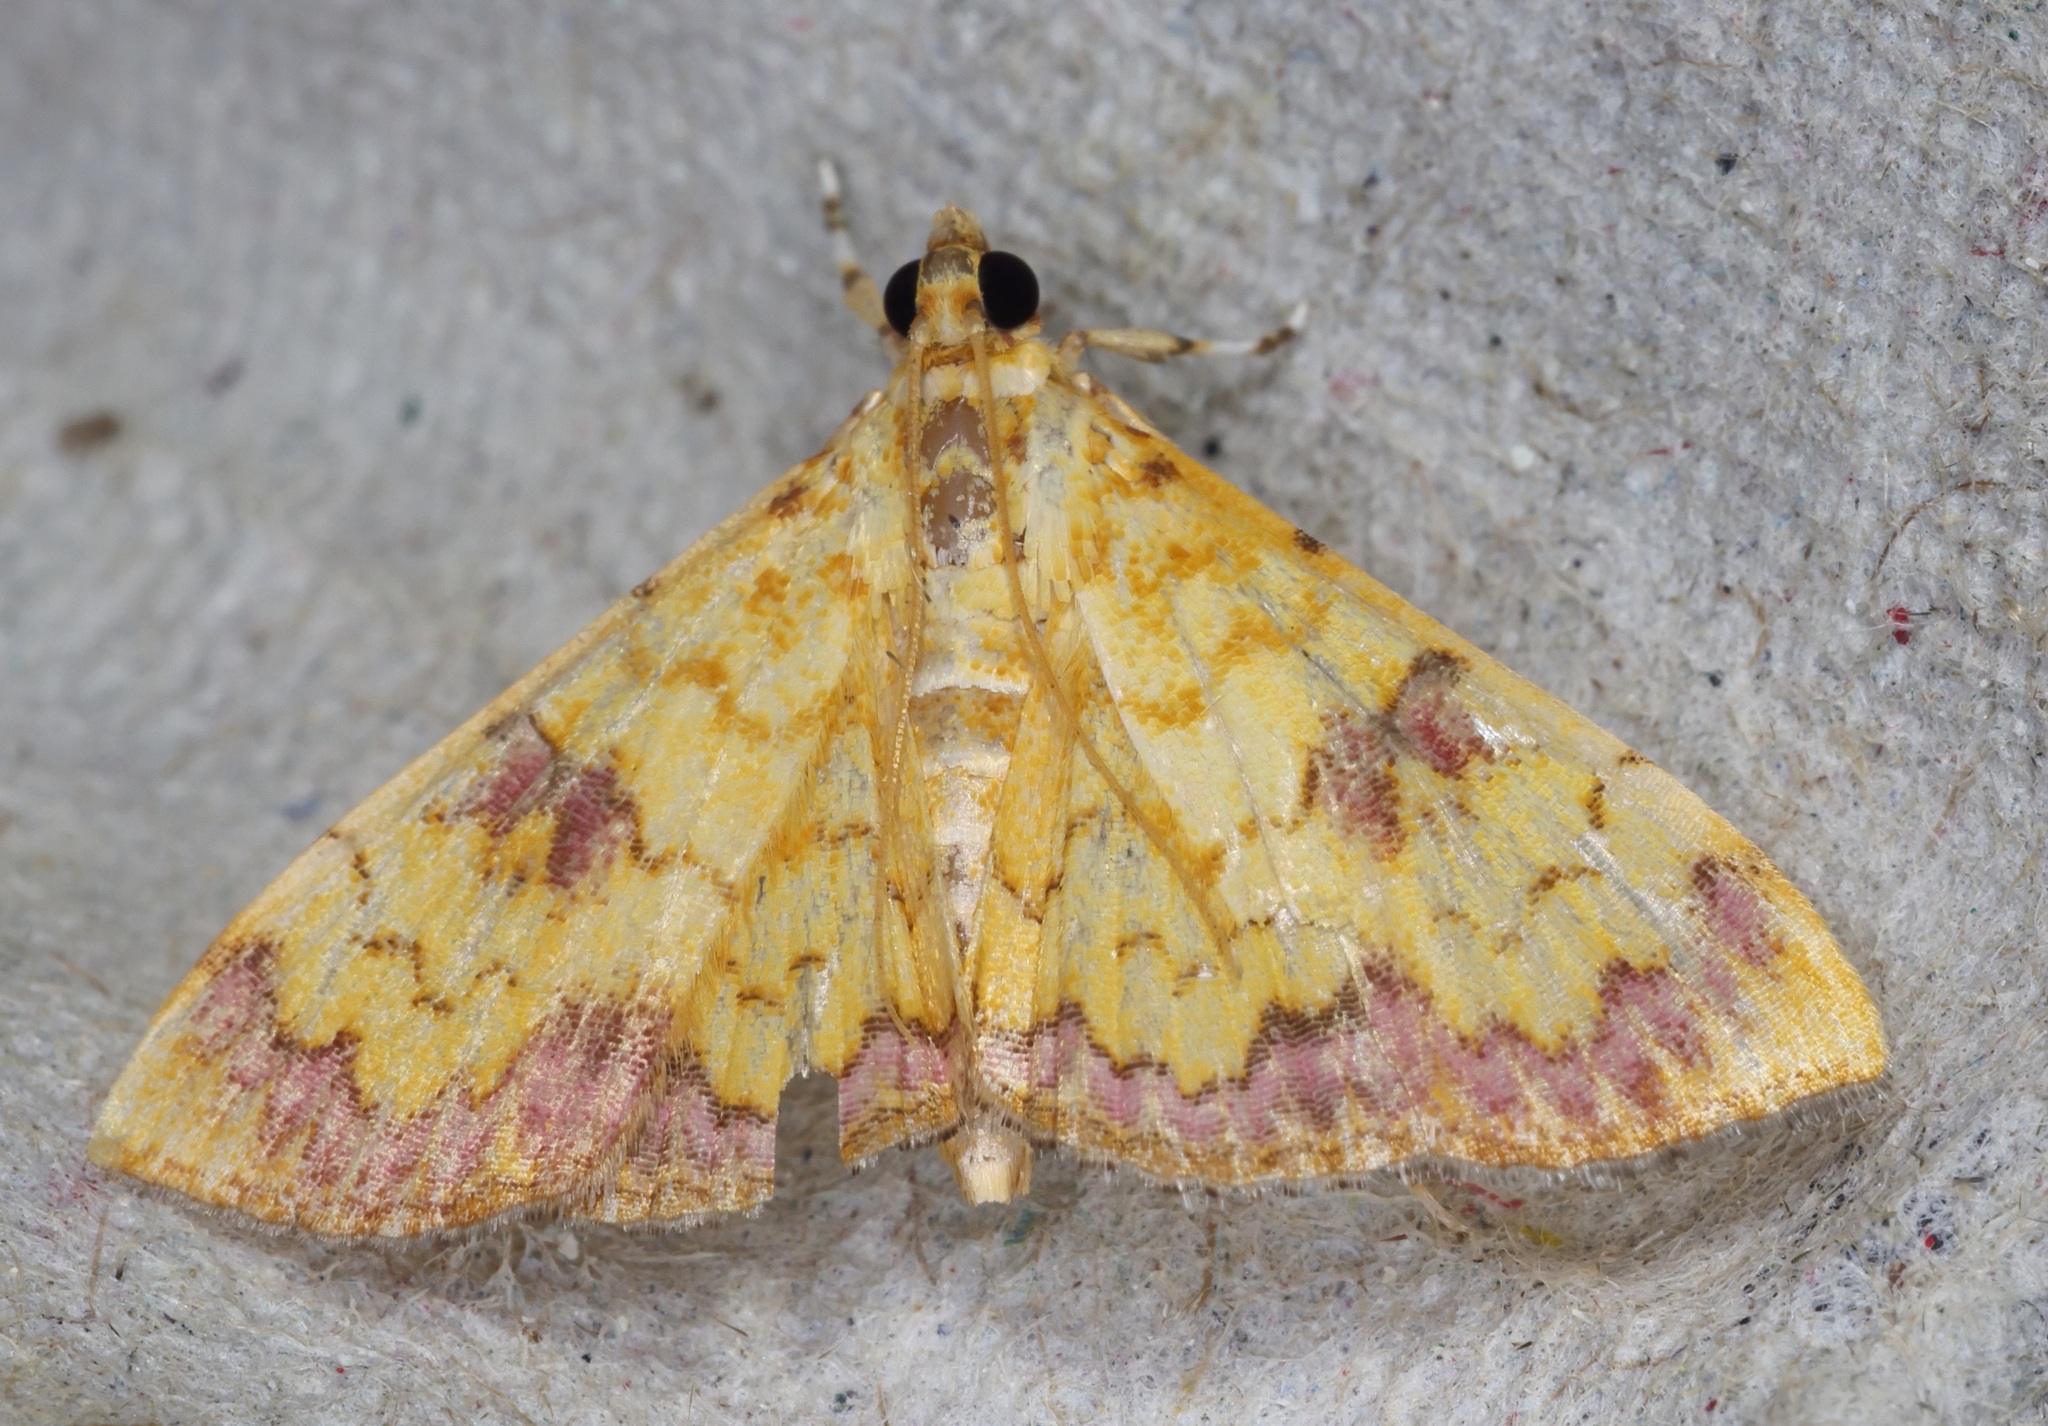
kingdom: Animalia
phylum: Arthropoda
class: Insecta
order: Lepidoptera
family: Crambidae
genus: Isocentris
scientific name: Isocentris filalis
